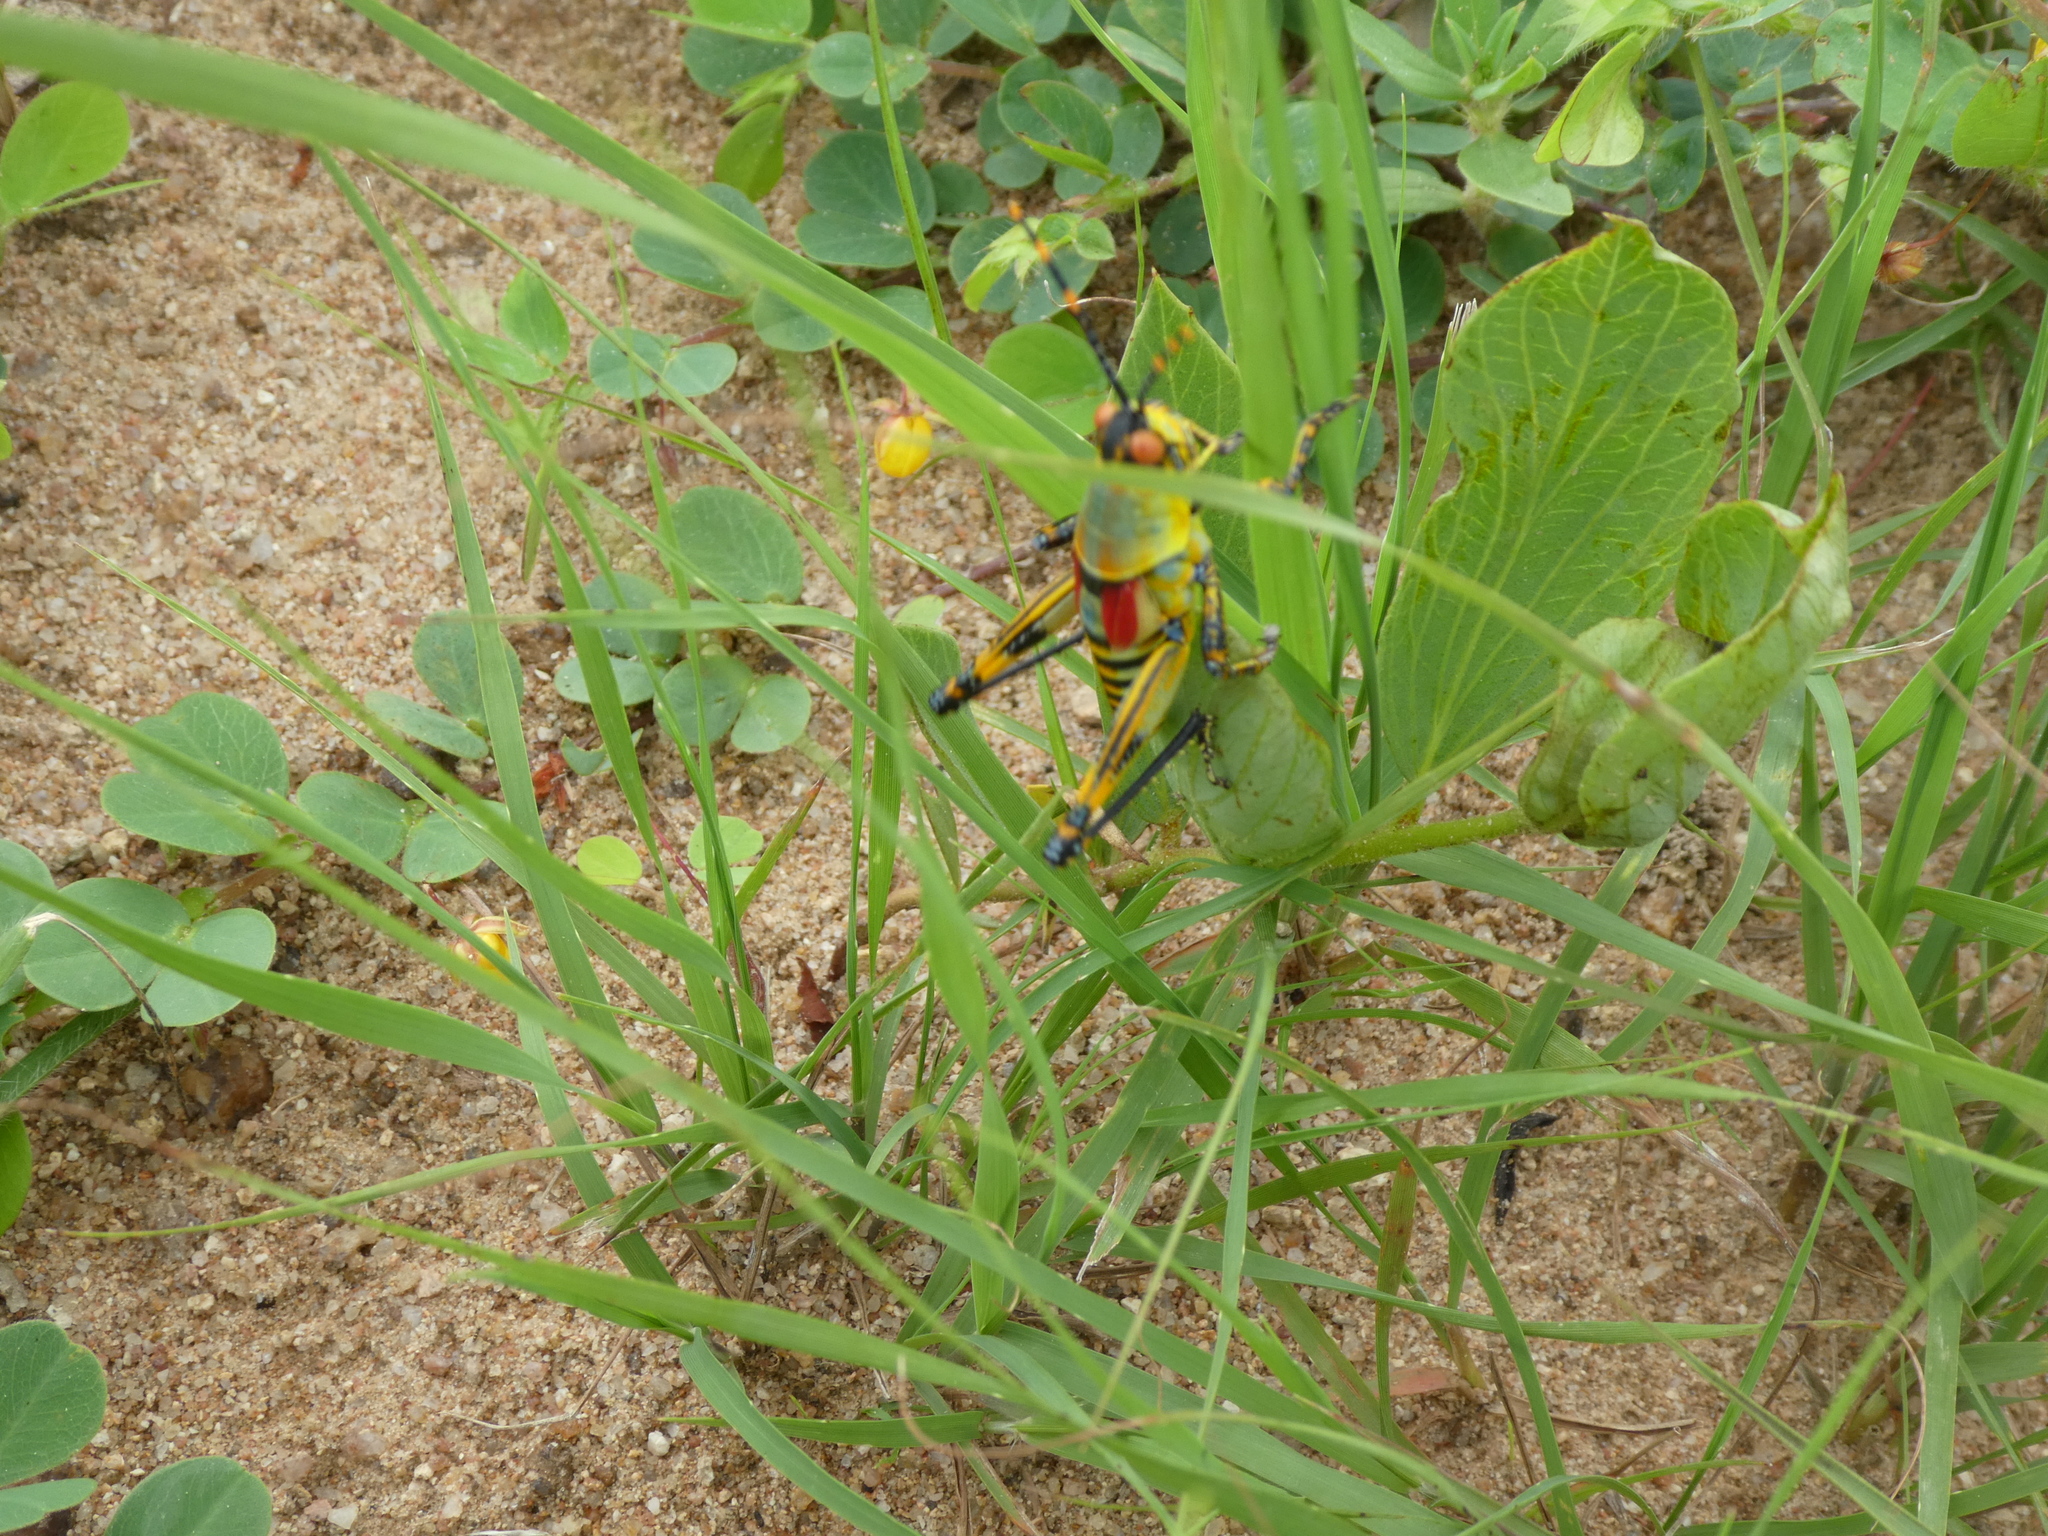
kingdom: Animalia
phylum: Arthropoda
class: Insecta
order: Orthoptera
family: Pyrgomorphidae
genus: Zonocerus
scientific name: Zonocerus elegans
